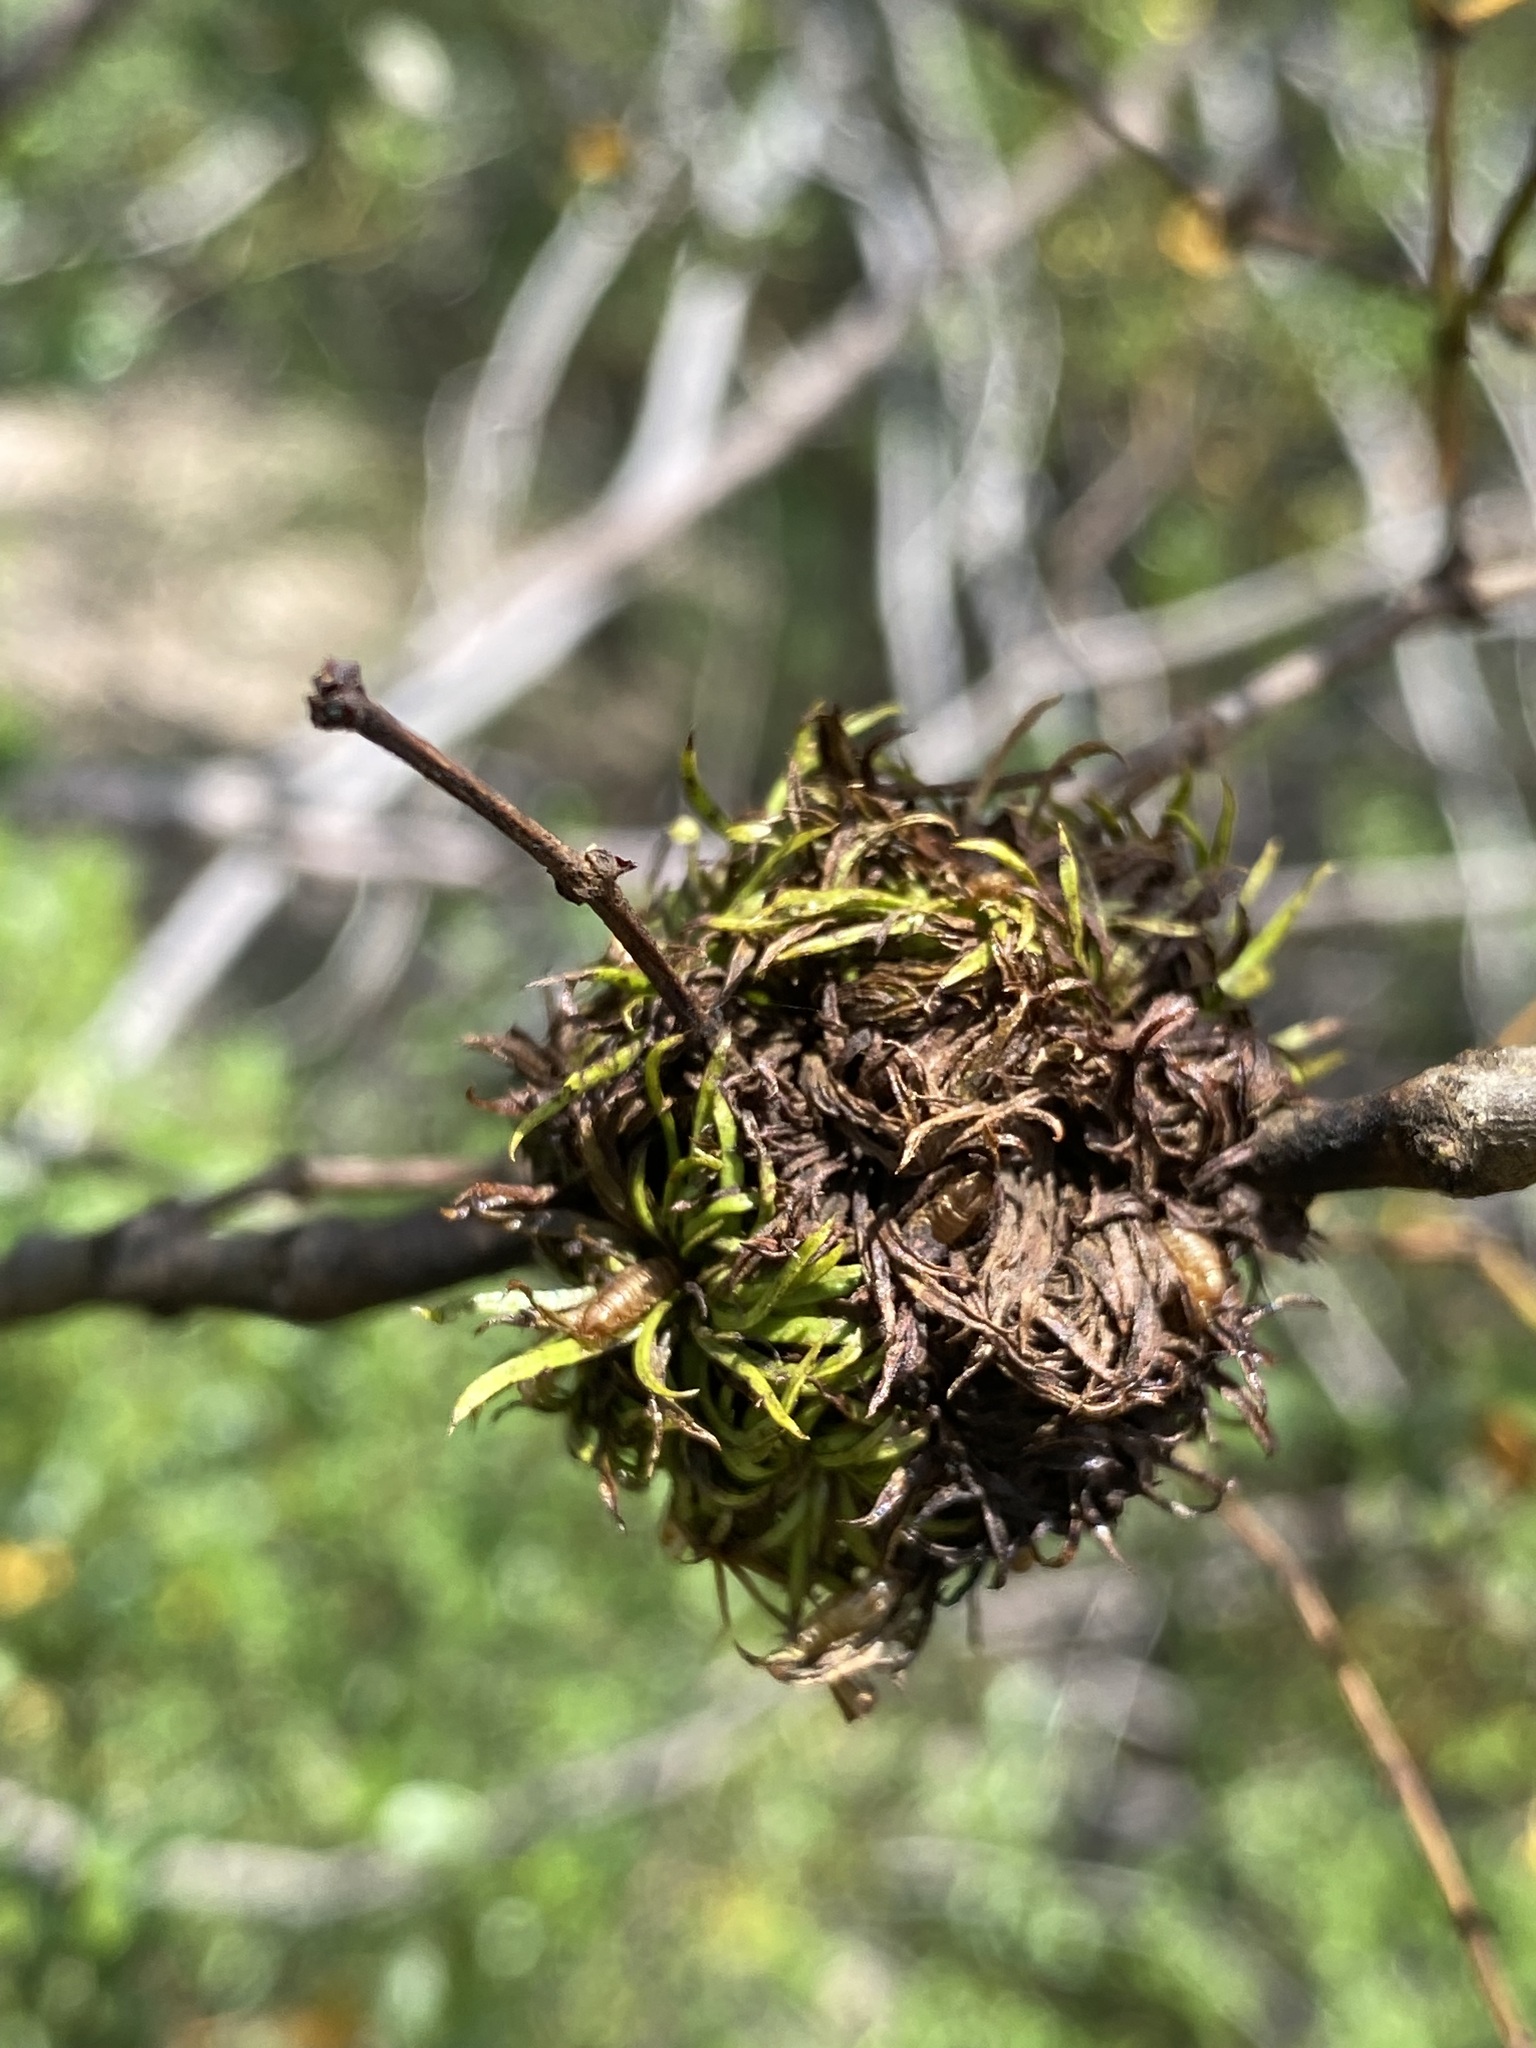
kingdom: Animalia
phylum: Arthropoda
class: Insecta
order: Diptera
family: Cecidomyiidae
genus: Asphondylia
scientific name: Asphondylia auripila
